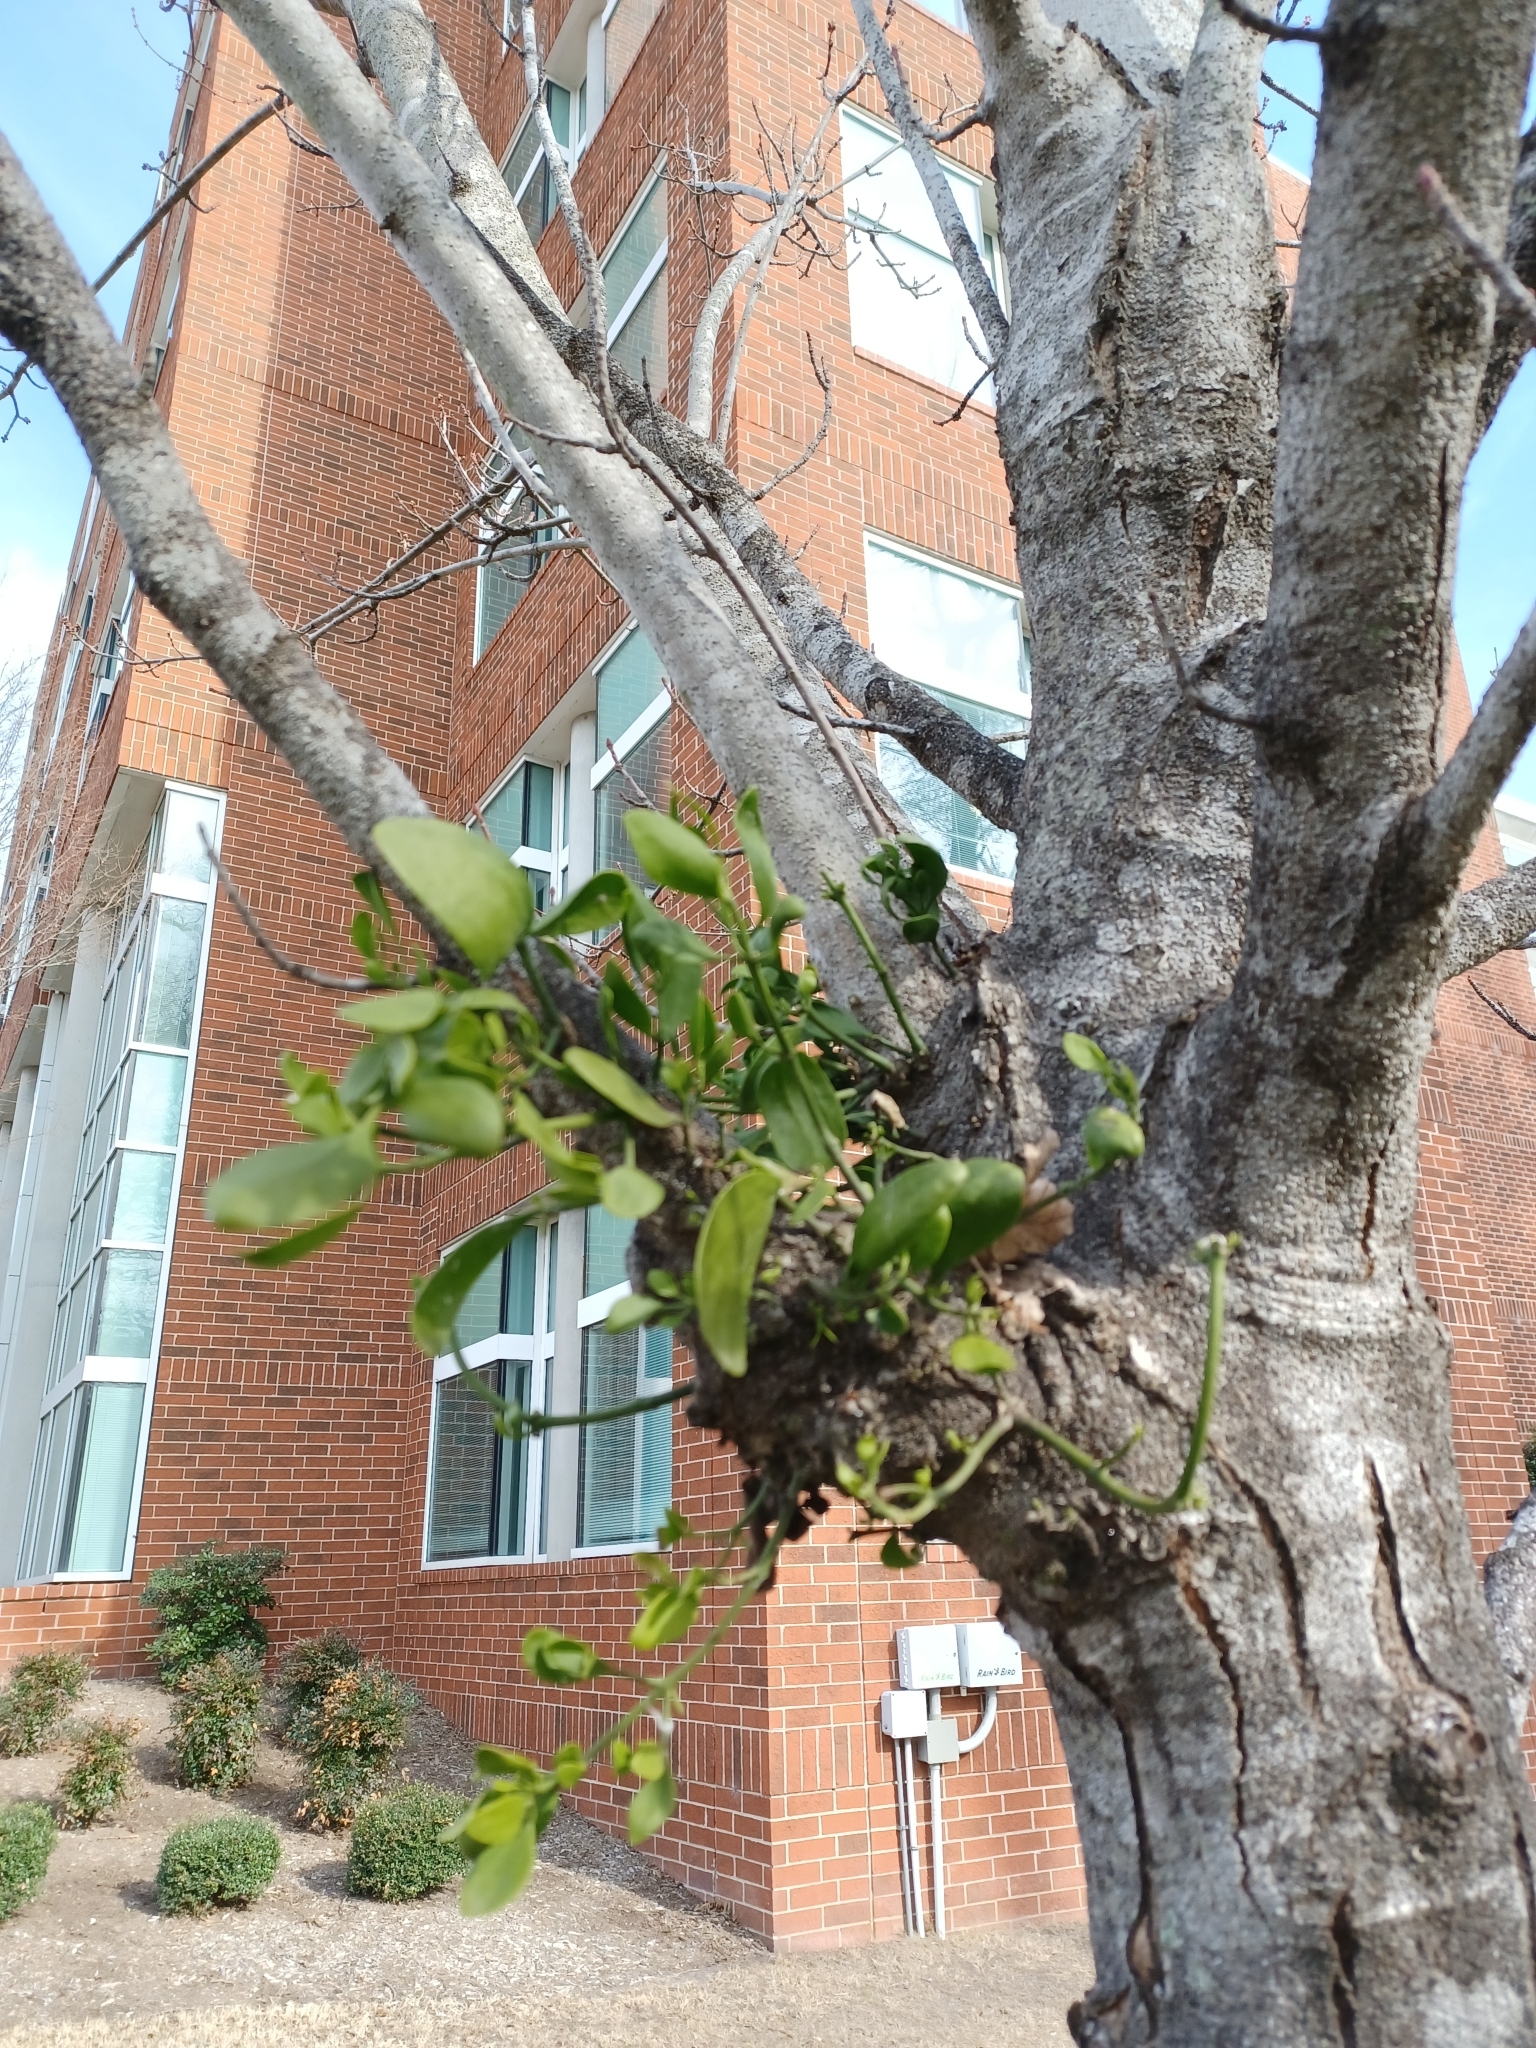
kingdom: Plantae
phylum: Tracheophyta
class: Magnoliopsida
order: Santalales
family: Viscaceae
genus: Phoradendron
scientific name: Phoradendron leucarpum
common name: Pacific mistletoe
